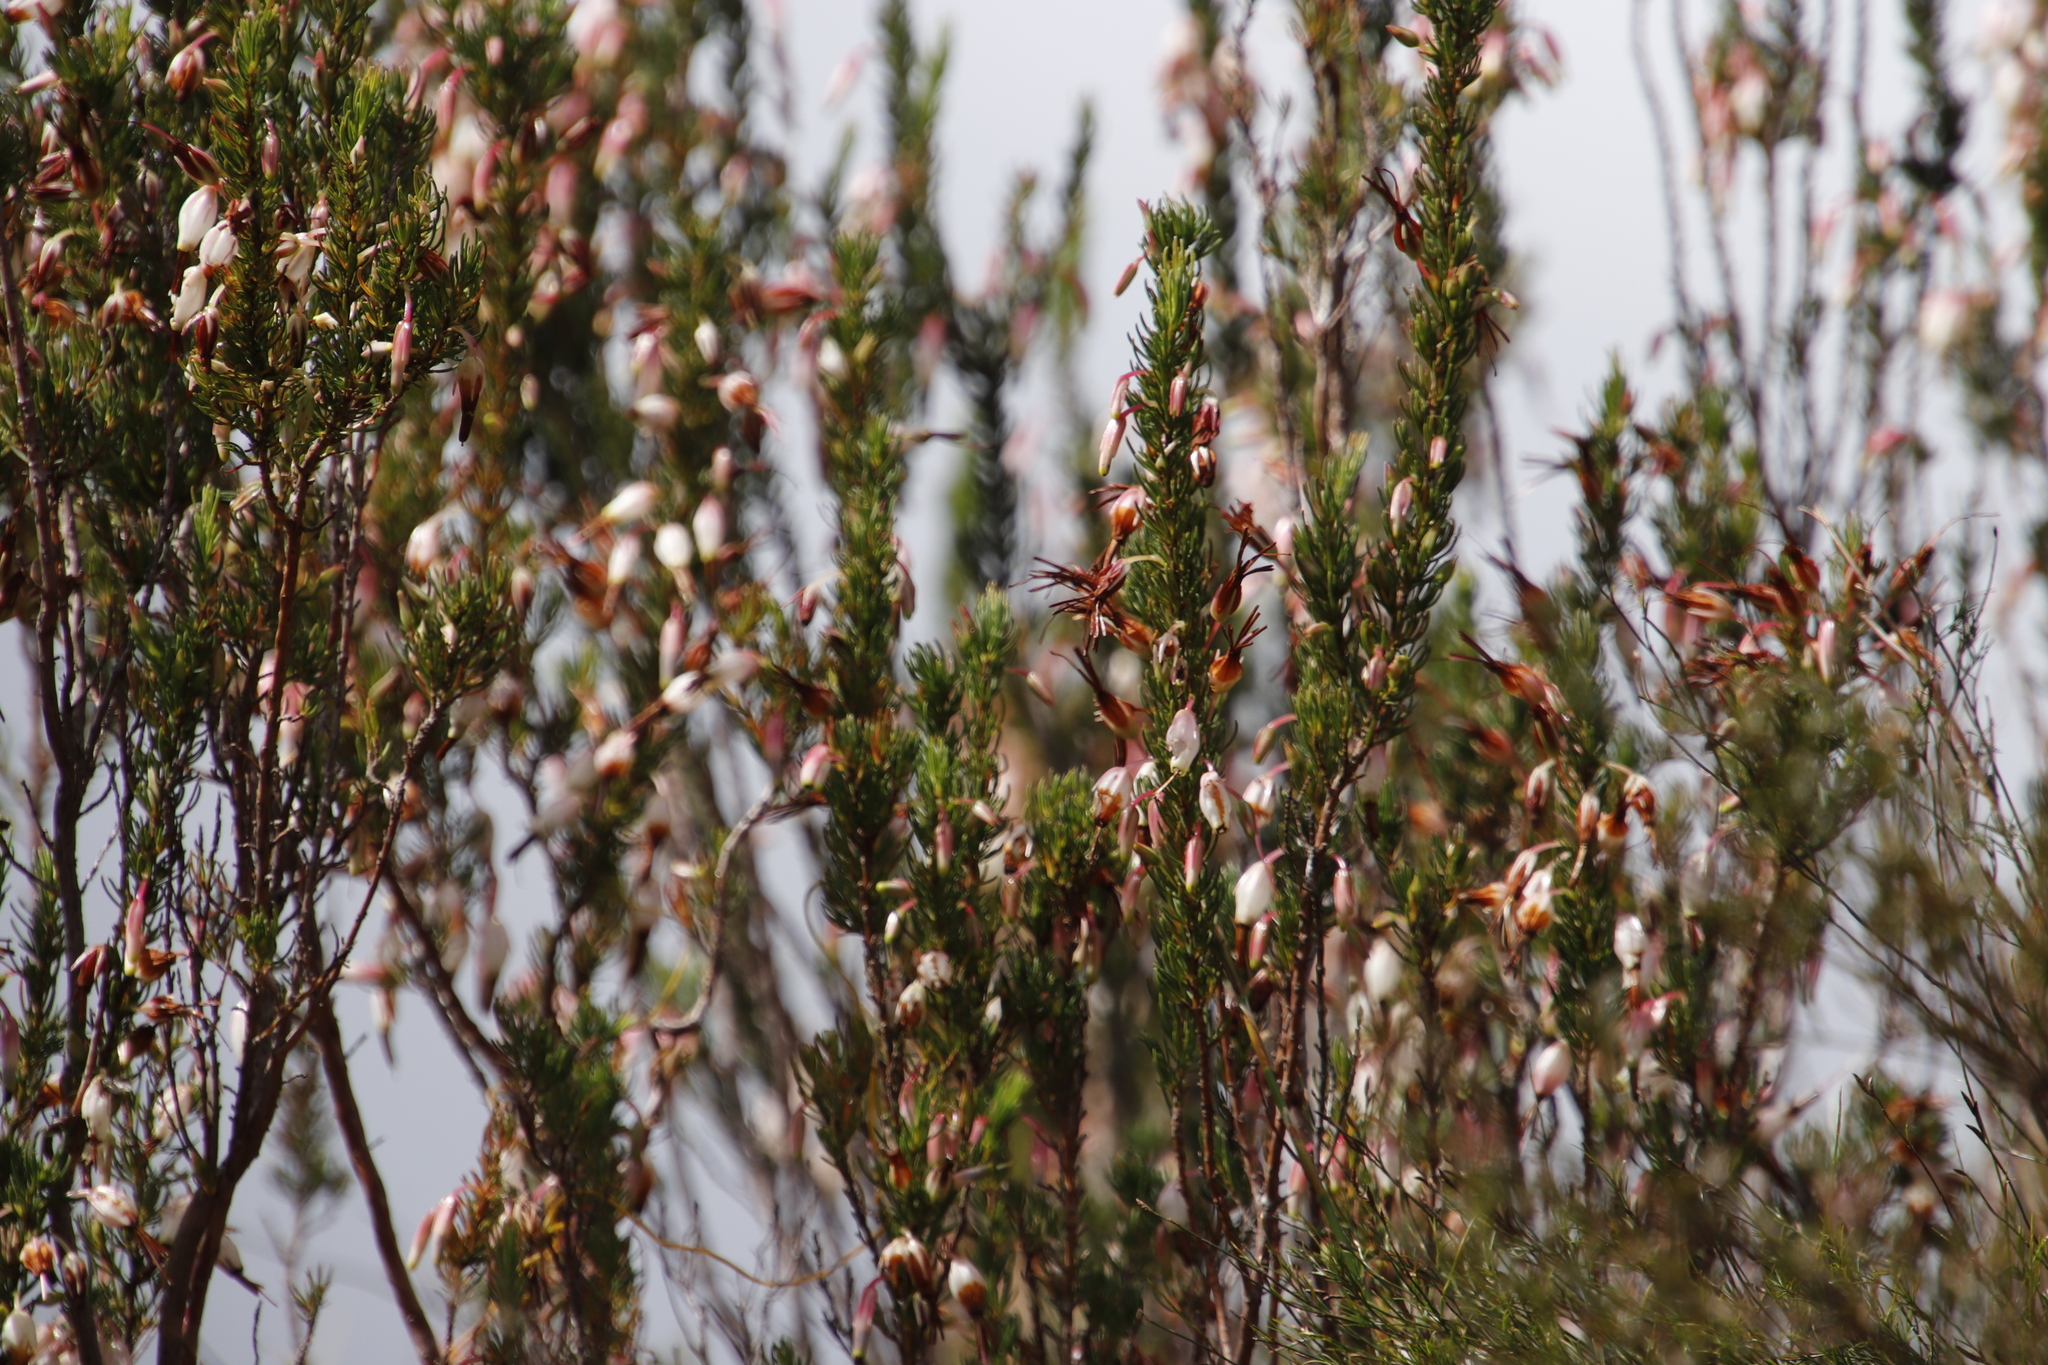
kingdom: Plantae
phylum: Tracheophyta
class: Magnoliopsida
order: Ericales
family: Ericaceae
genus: Erica
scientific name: Erica plukenetii
